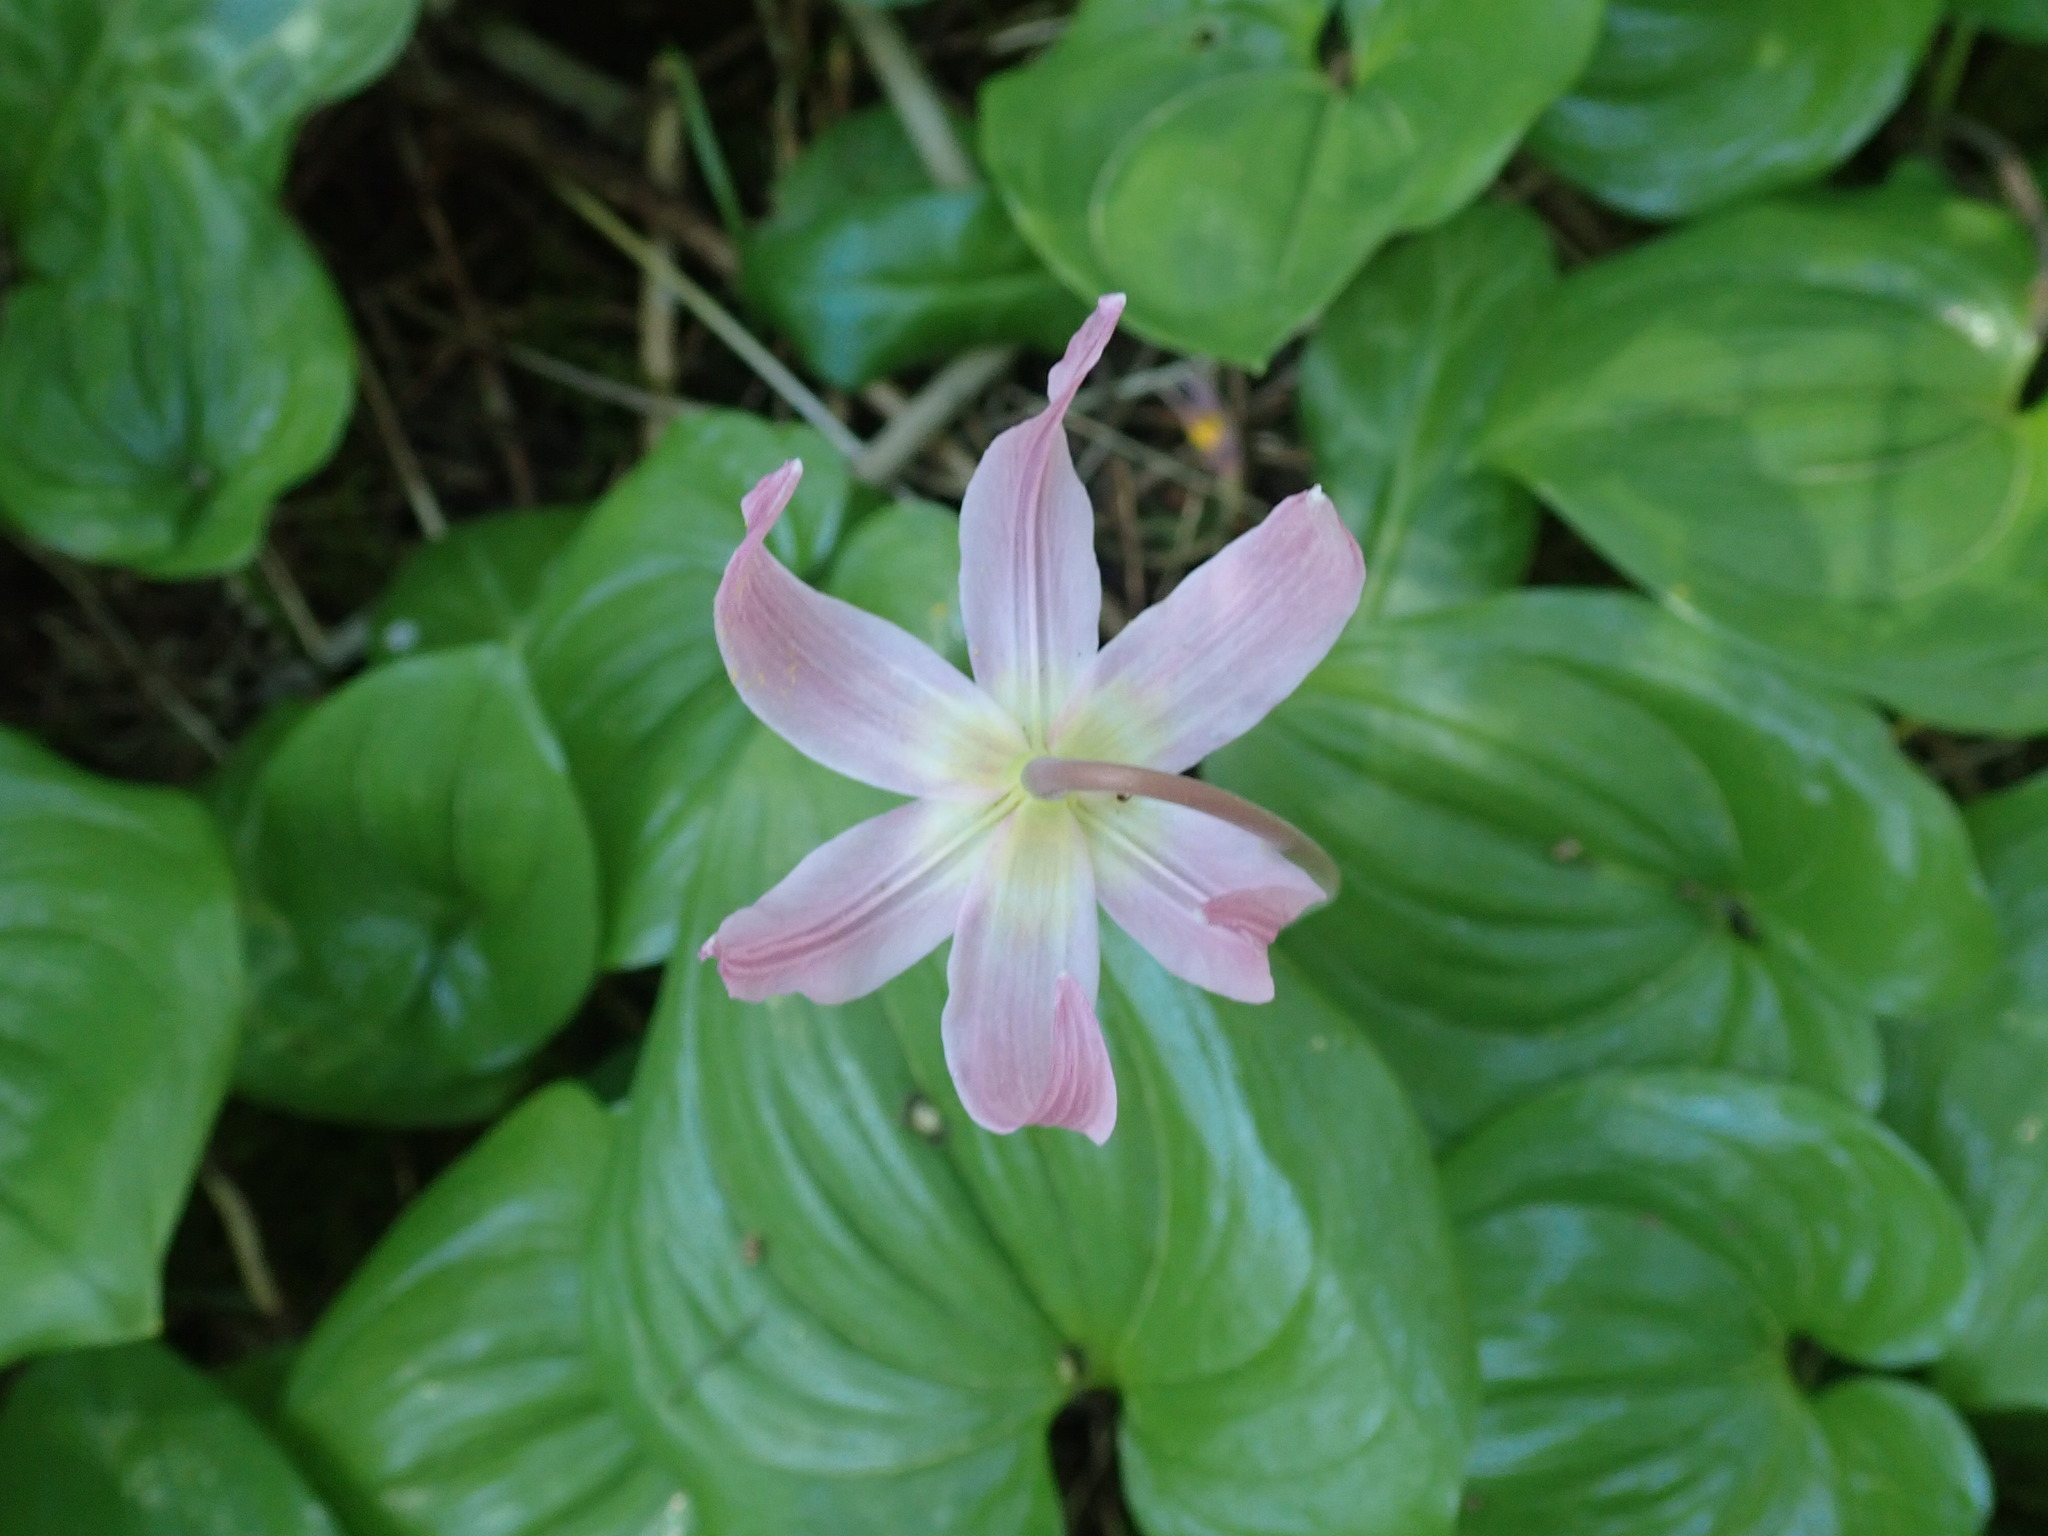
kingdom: Plantae
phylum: Tracheophyta
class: Liliopsida
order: Liliales
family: Liliaceae
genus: Erythronium
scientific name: Erythronium revolutum
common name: Pink fawn-lily
